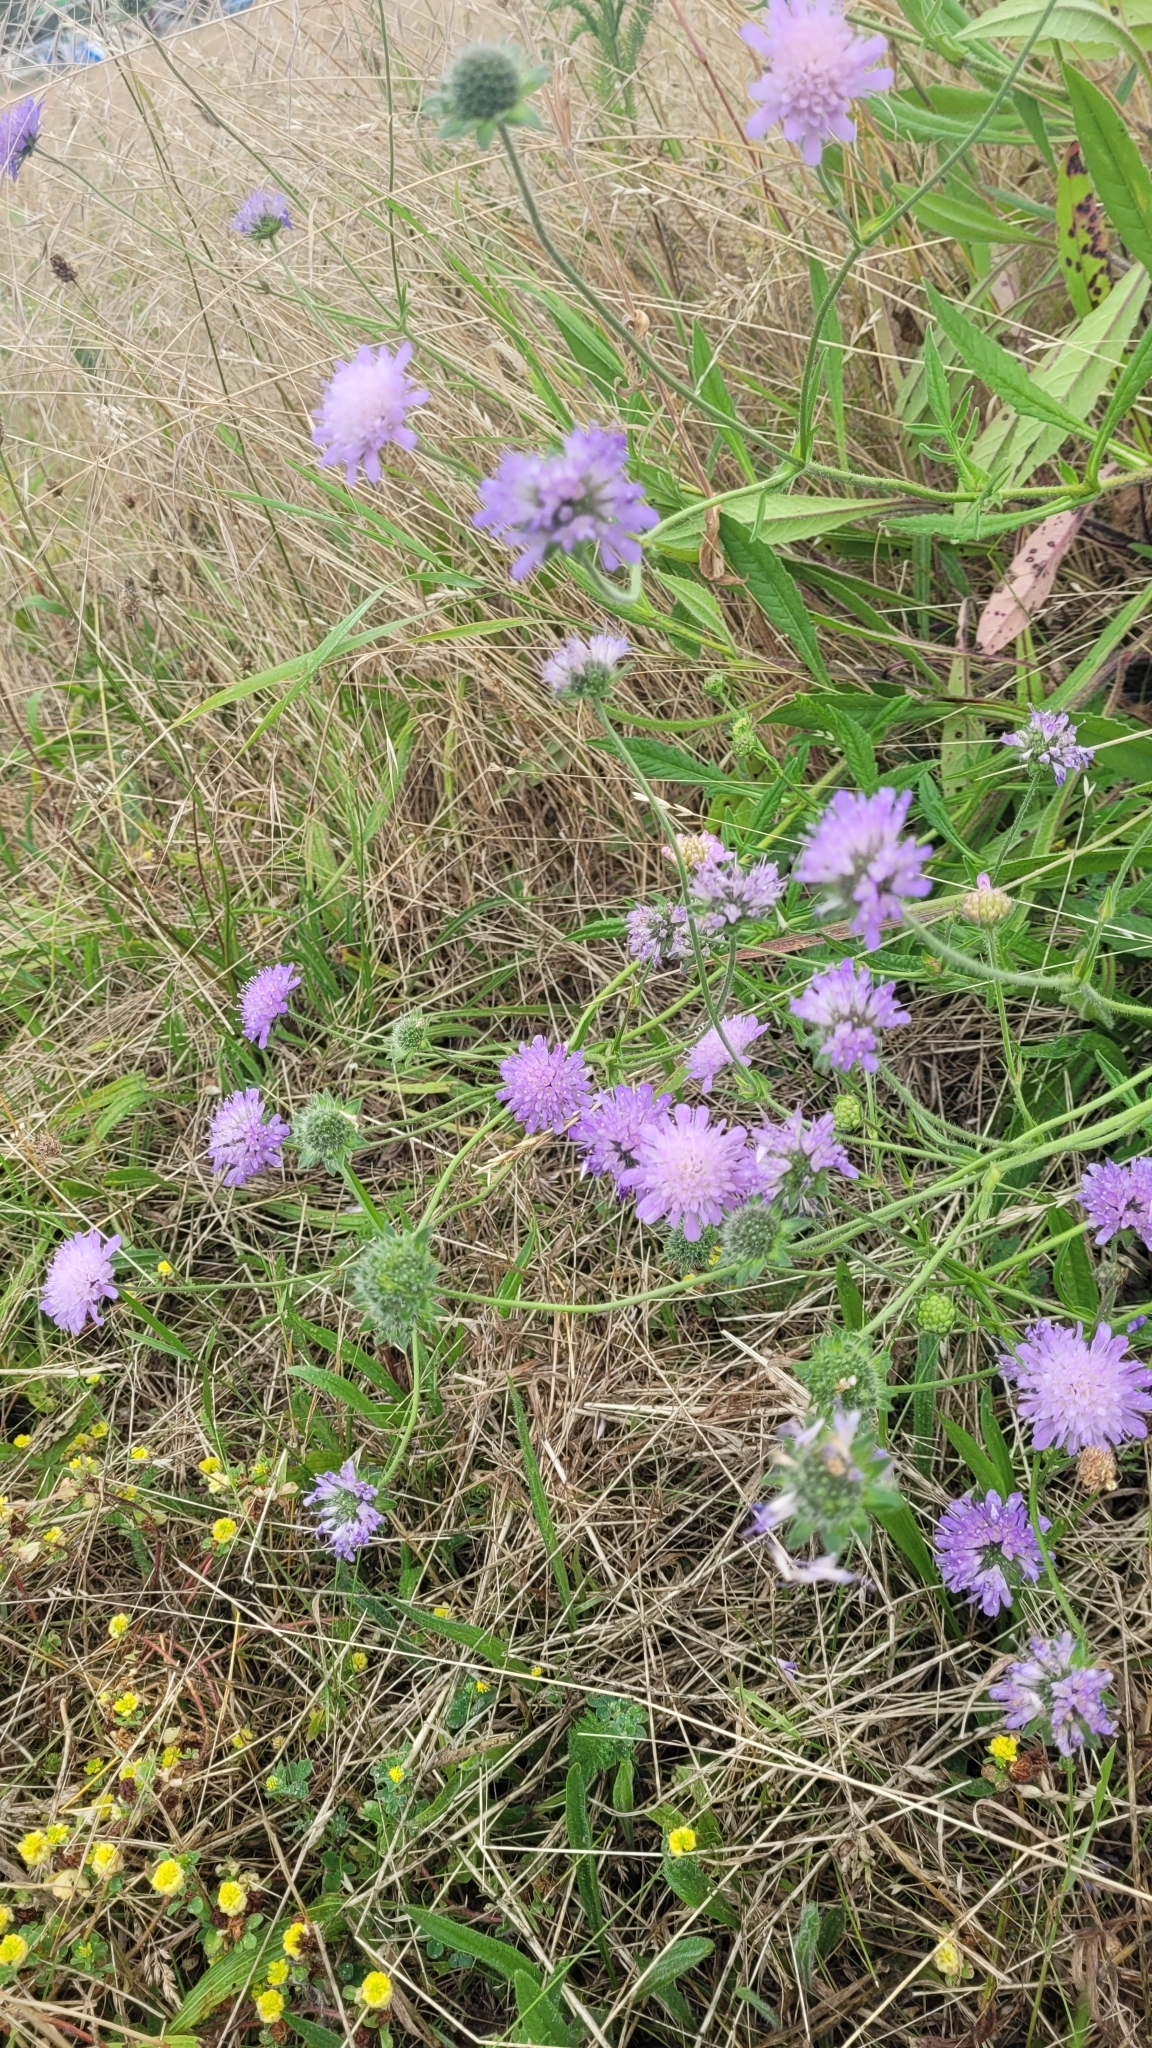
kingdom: Plantae
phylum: Tracheophyta
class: Magnoliopsida
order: Dipsacales
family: Caprifoliaceae
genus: Knautia
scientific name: Knautia arvensis
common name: Field scabiosa
